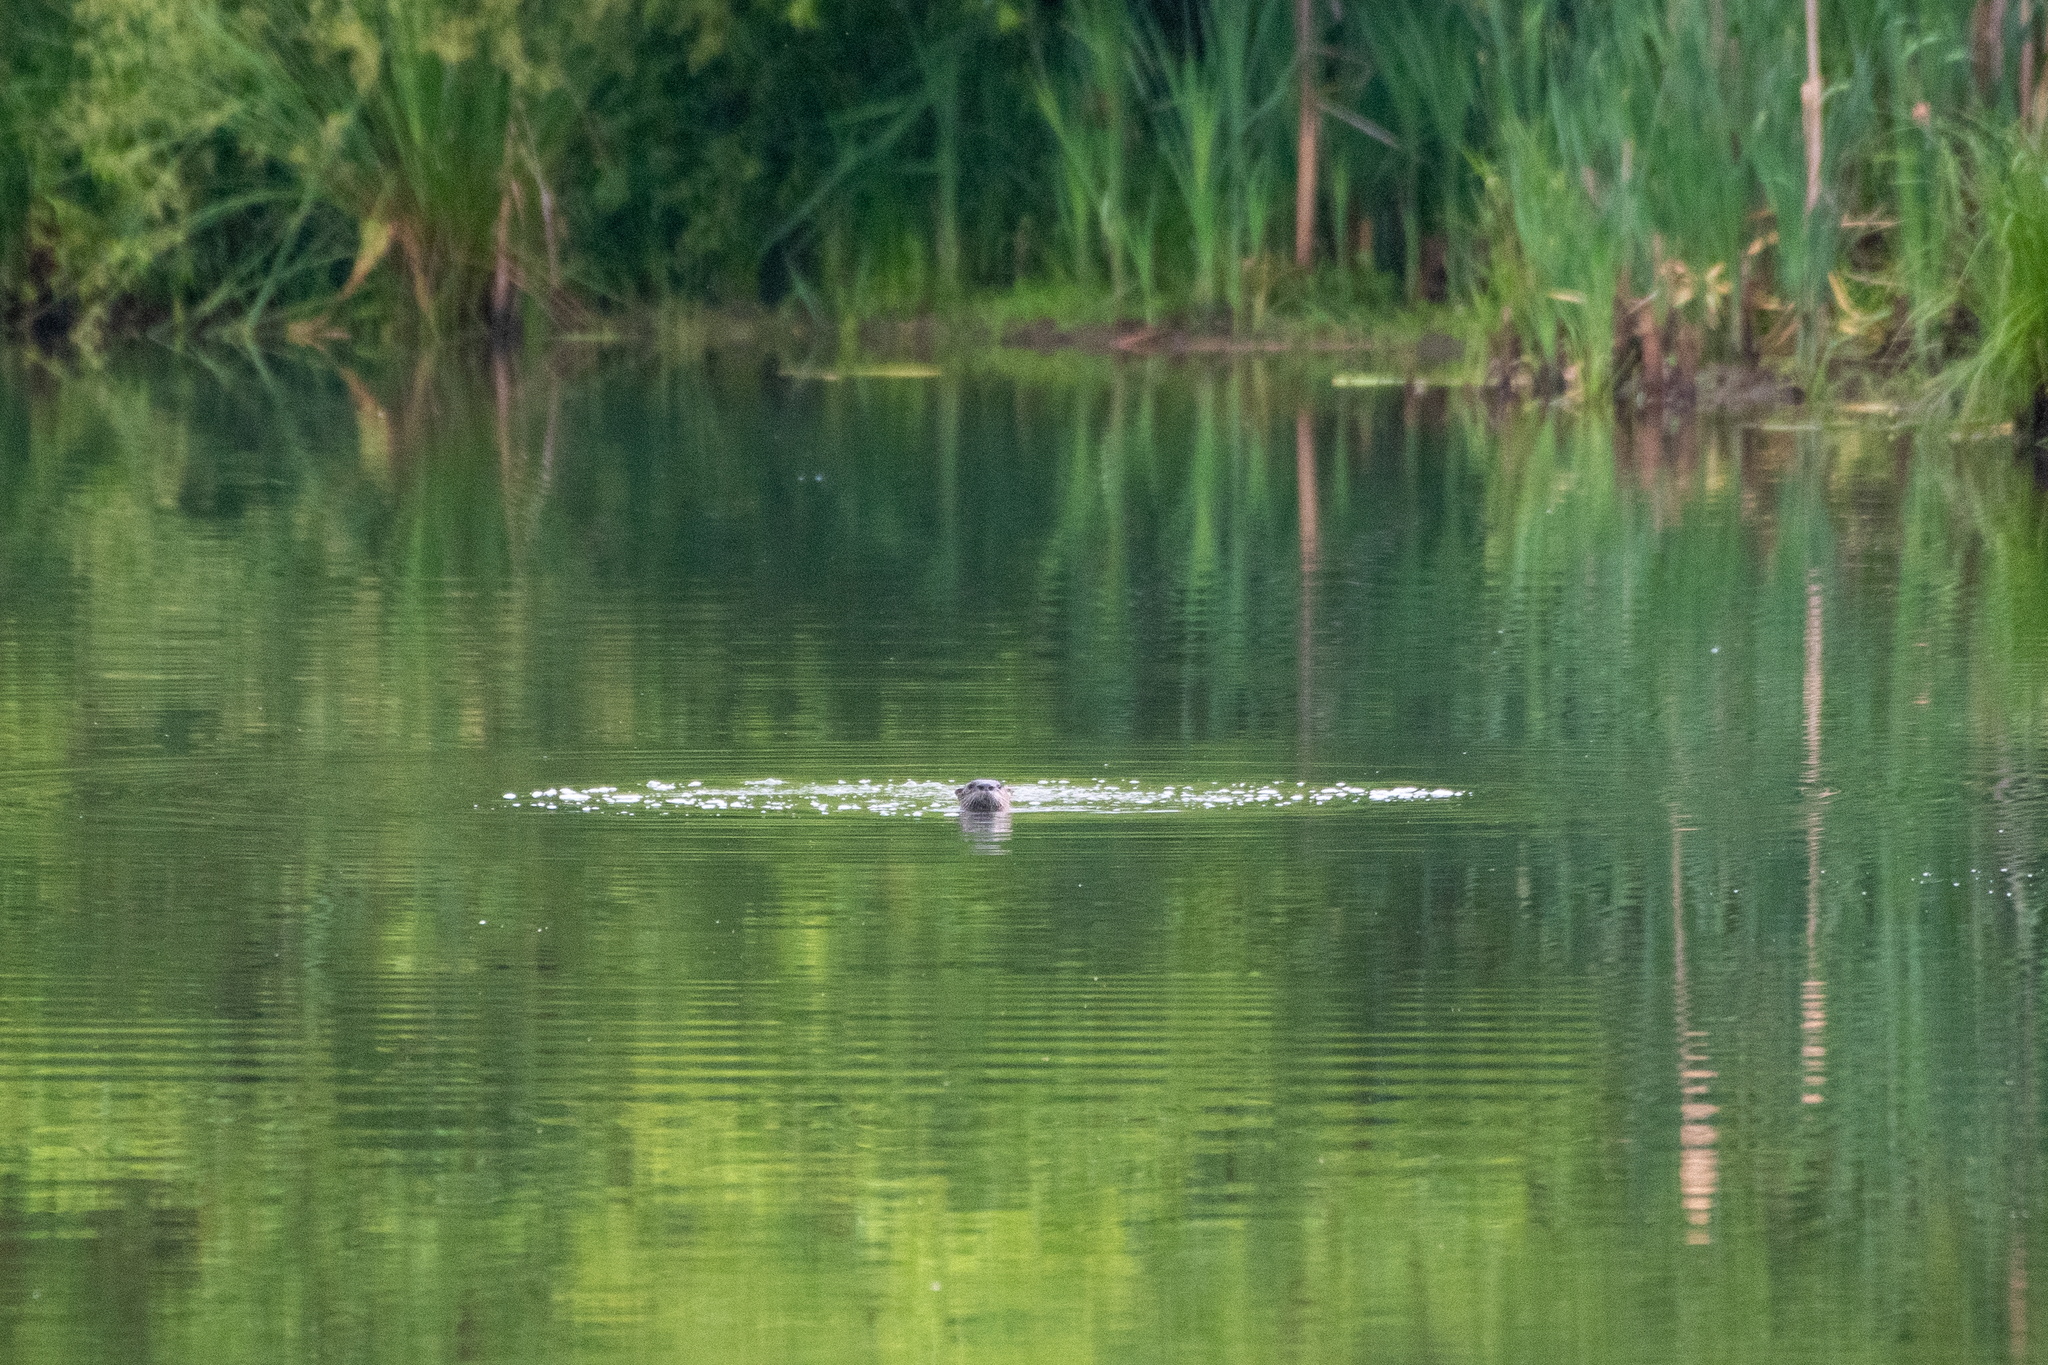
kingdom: Animalia
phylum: Chordata
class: Mammalia
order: Carnivora
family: Mustelidae
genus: Lontra
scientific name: Lontra canadensis
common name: North american river otter
